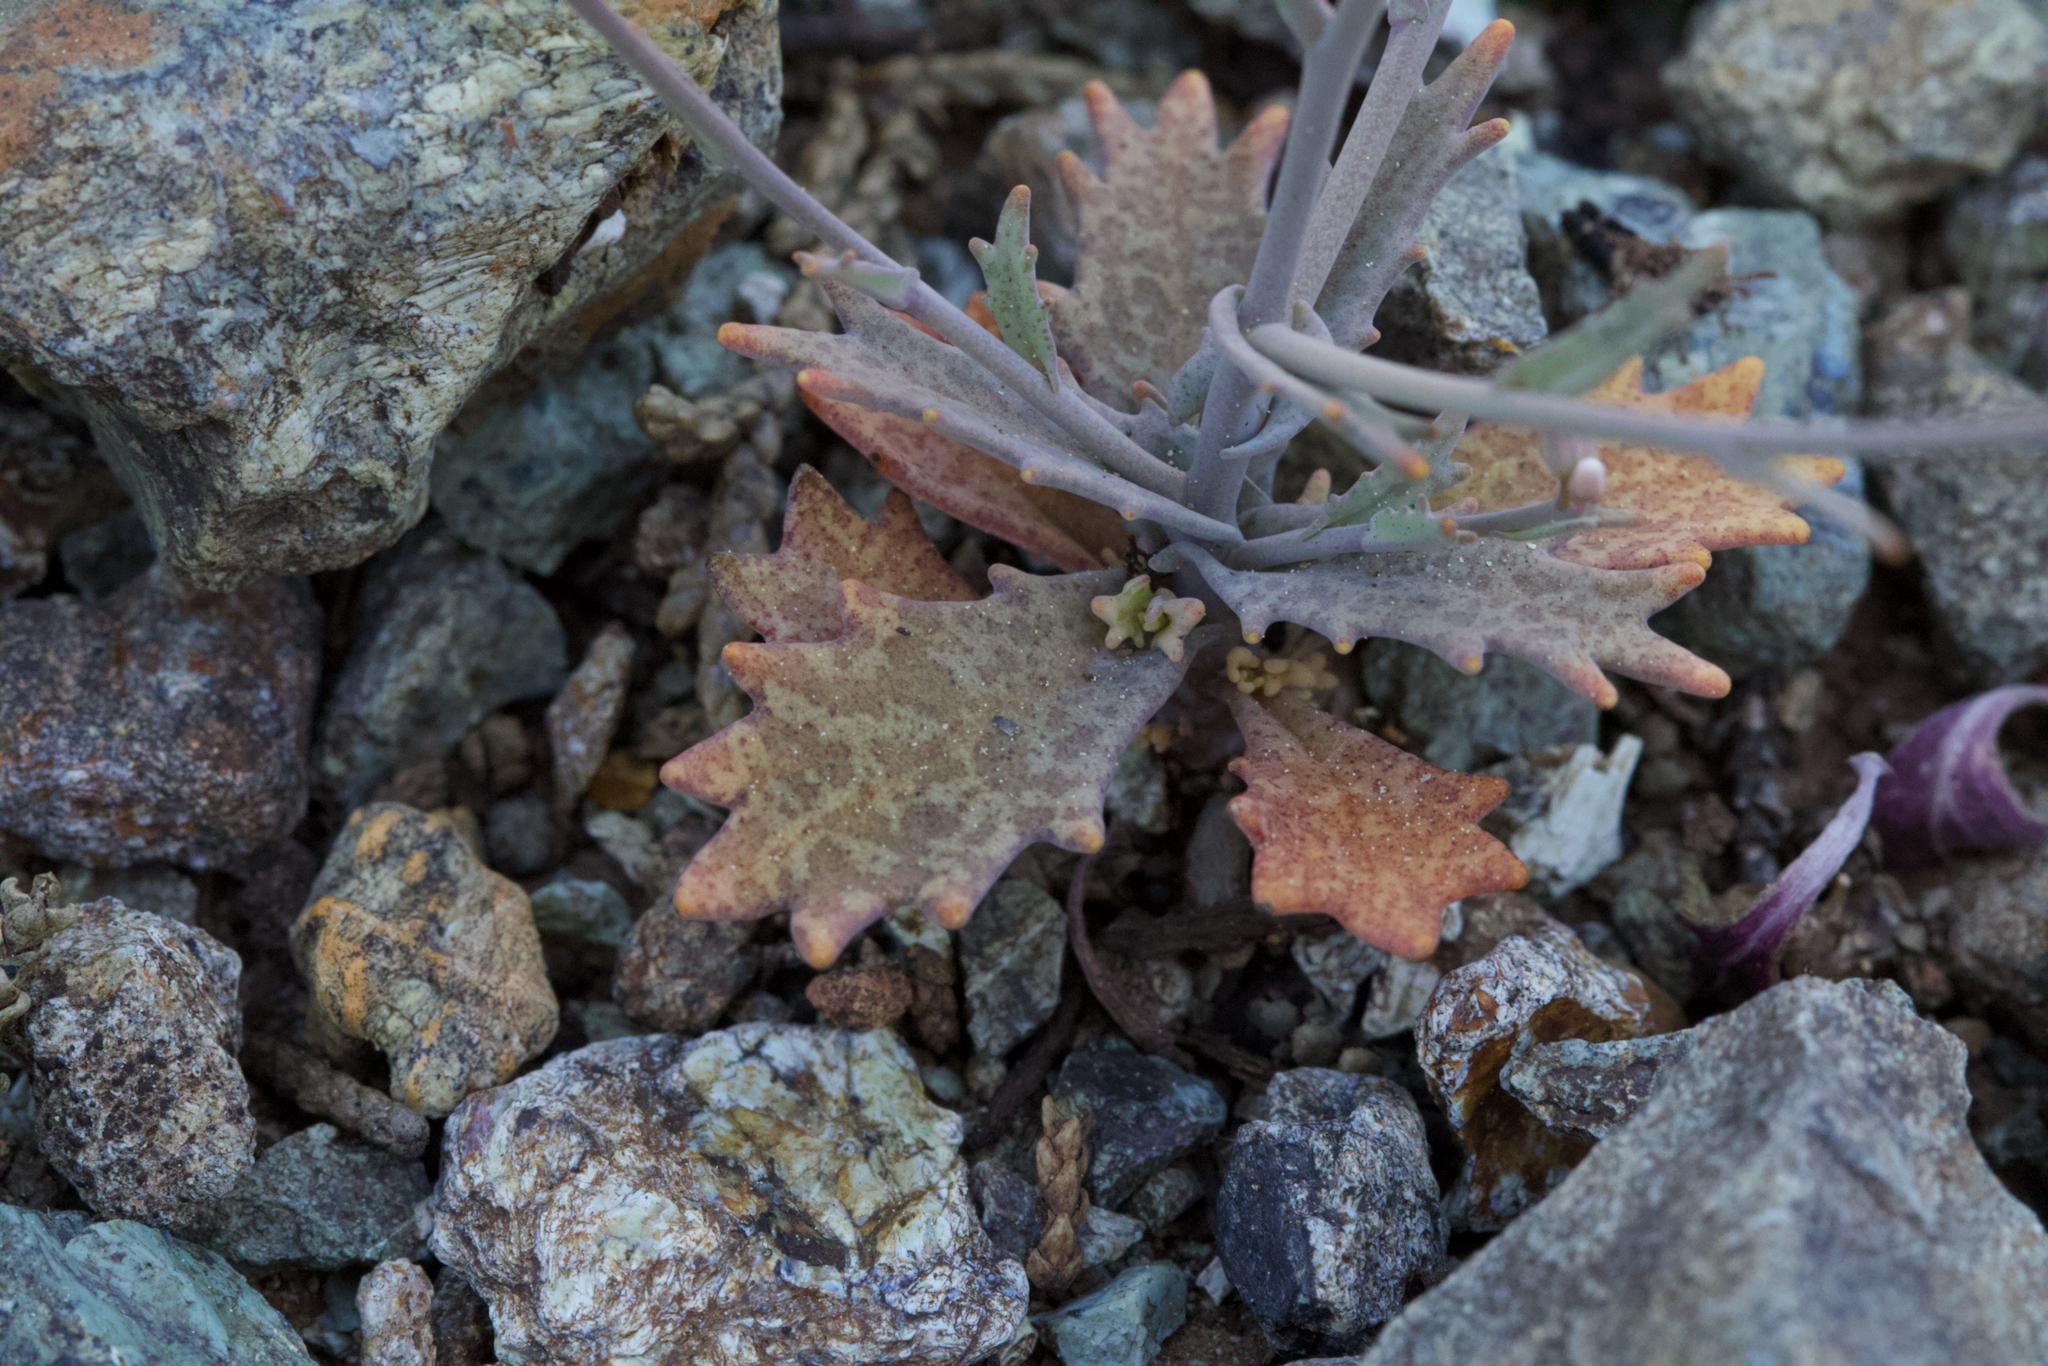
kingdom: Plantae
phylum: Tracheophyta
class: Magnoliopsida
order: Brassicales
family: Brassicaceae
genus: Streptanthus
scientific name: Streptanthus batrachopus
